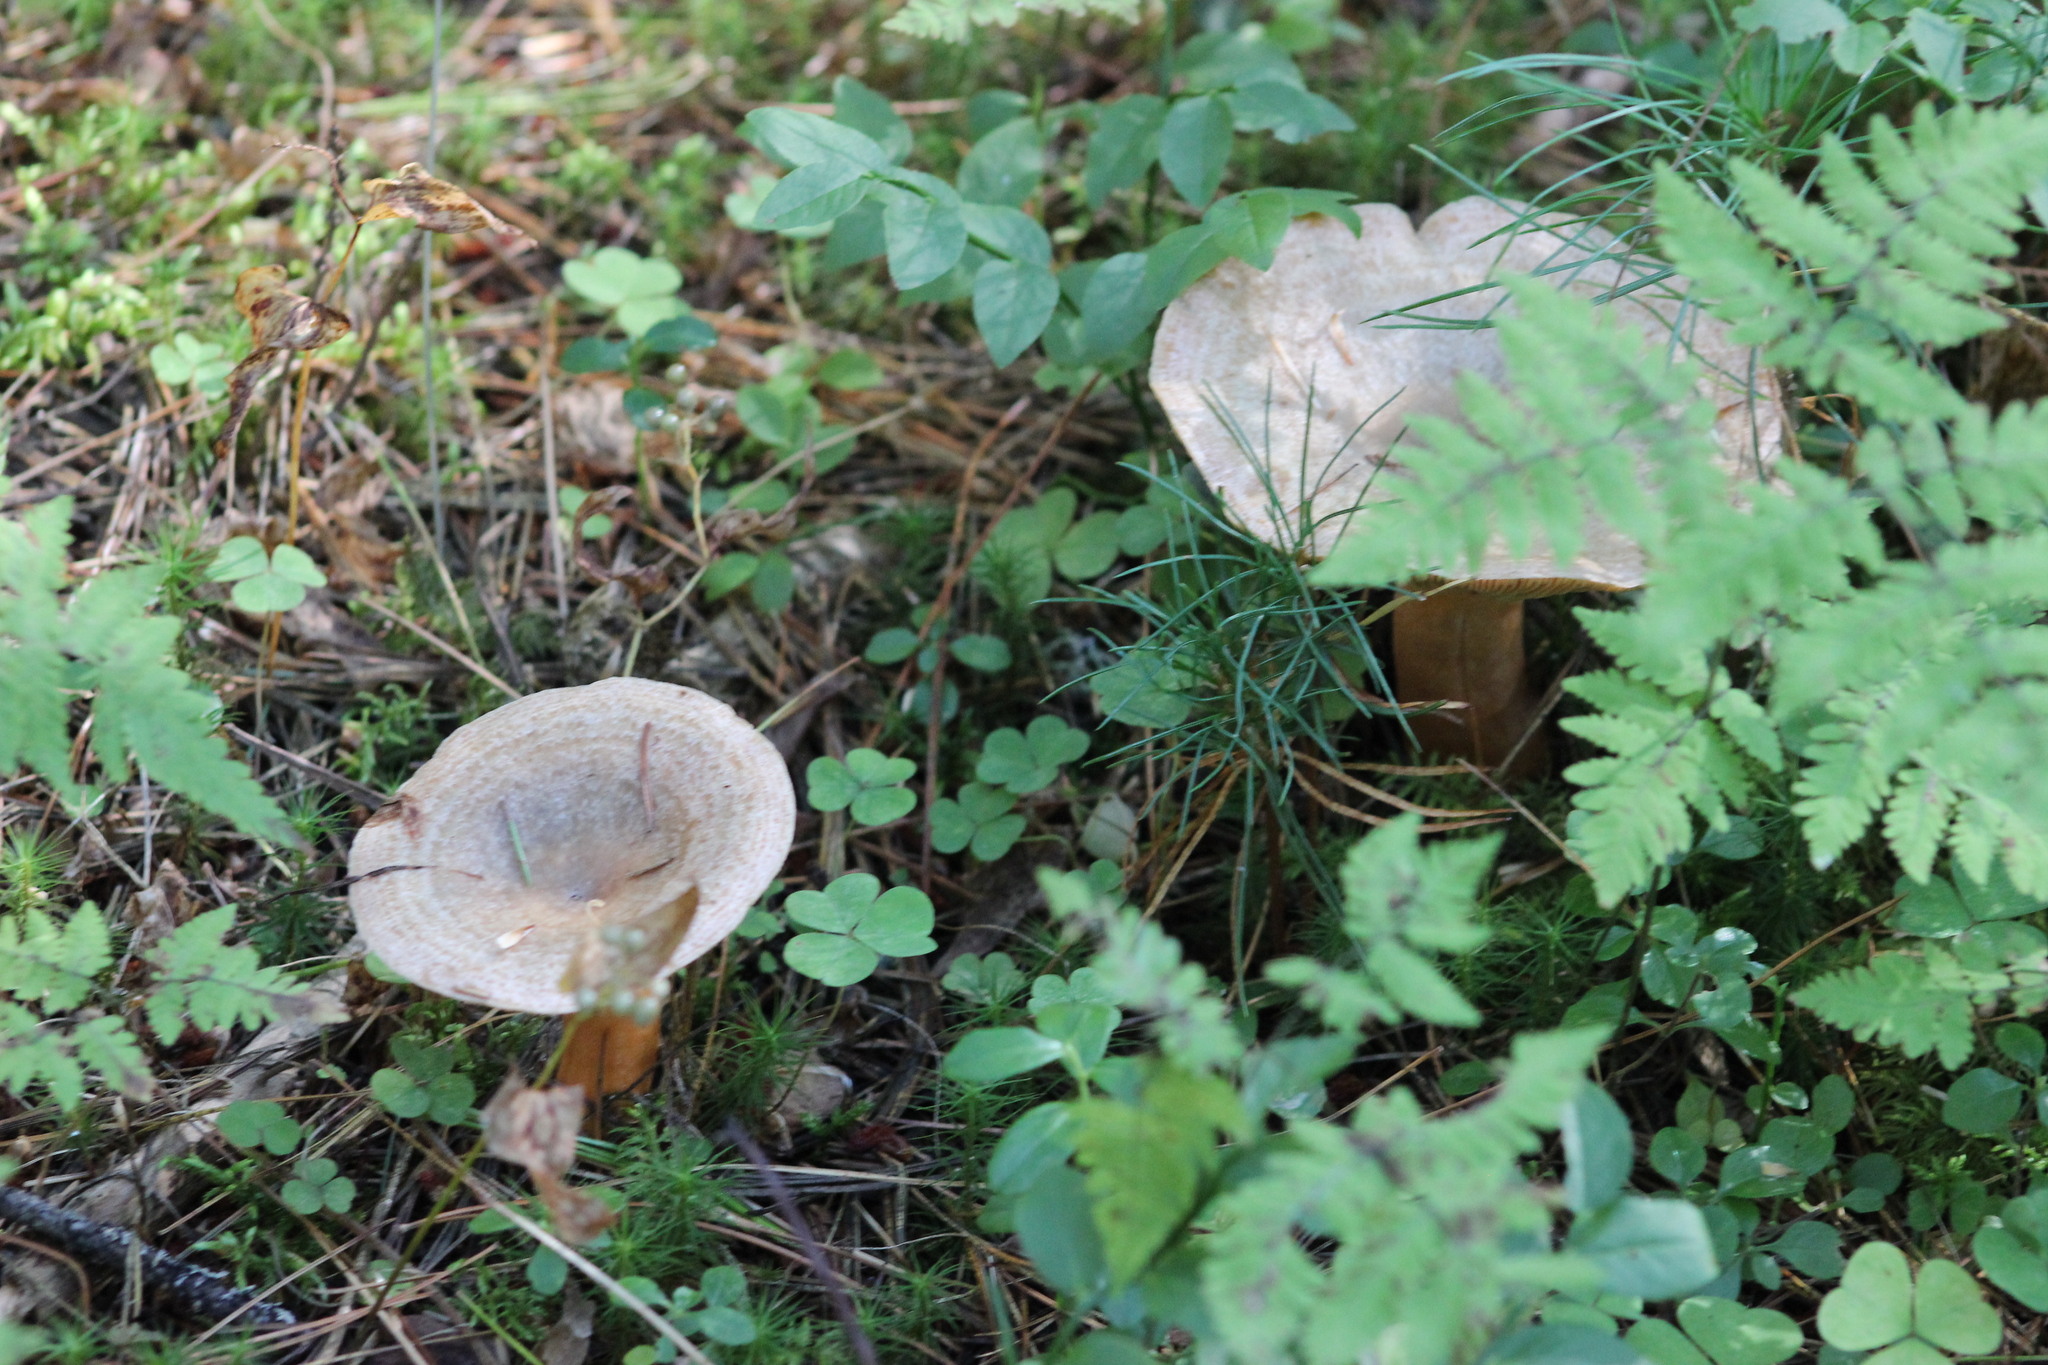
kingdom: Fungi
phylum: Basidiomycota
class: Agaricomycetes
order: Russulales
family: Russulaceae
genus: Lactarius
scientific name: Lactarius deterrimus
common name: False saffron milkcap
